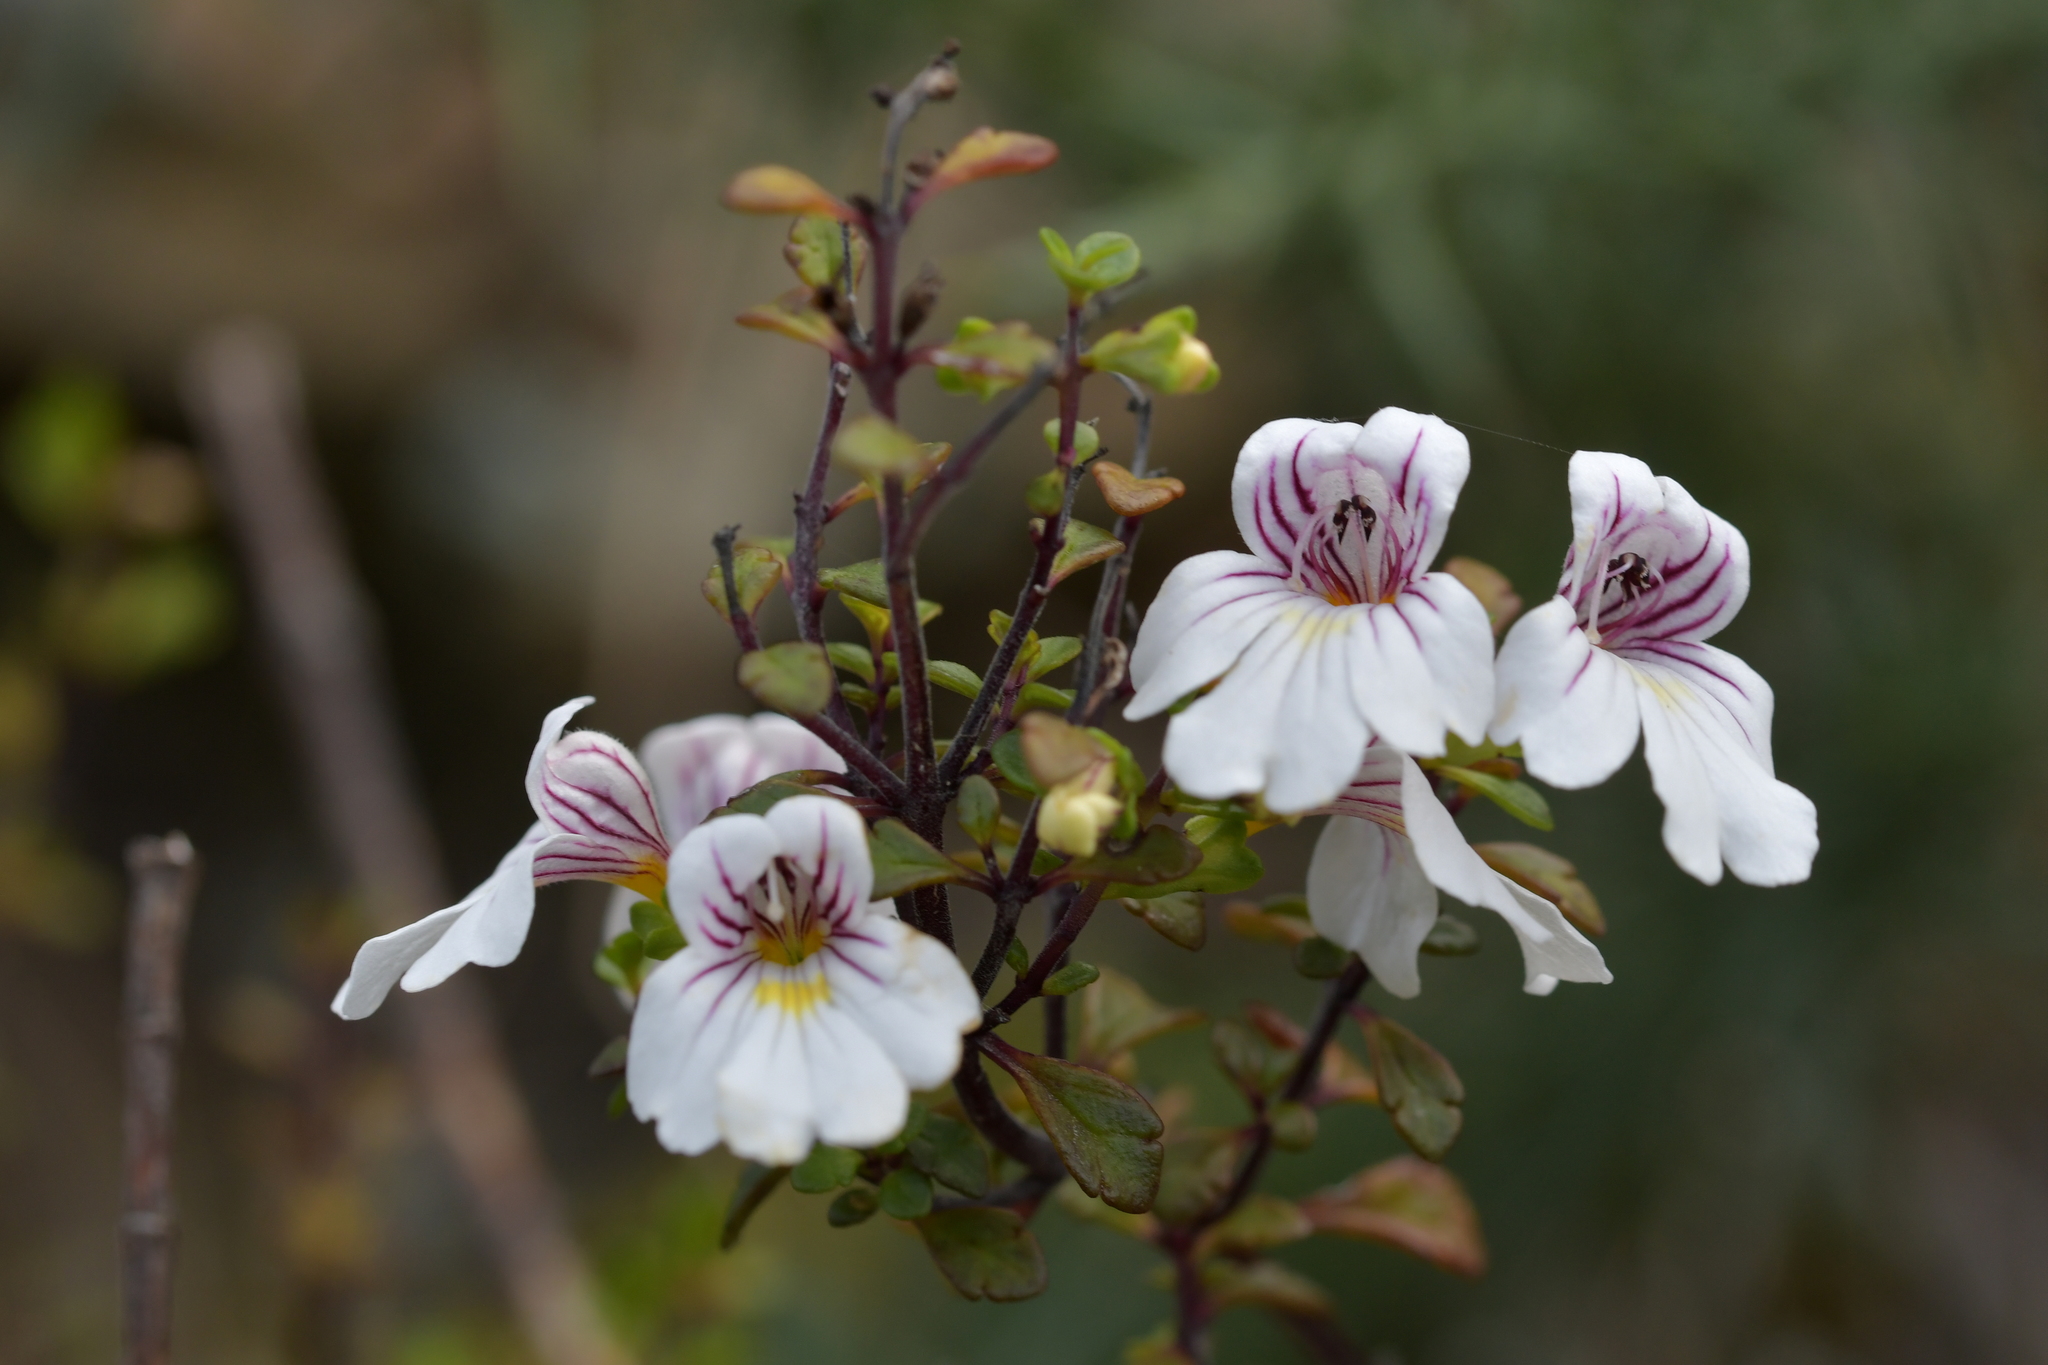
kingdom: Plantae
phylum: Tracheophyta
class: Magnoliopsida
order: Lamiales
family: Orobanchaceae
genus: Euphrasia
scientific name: Euphrasia cuneata
